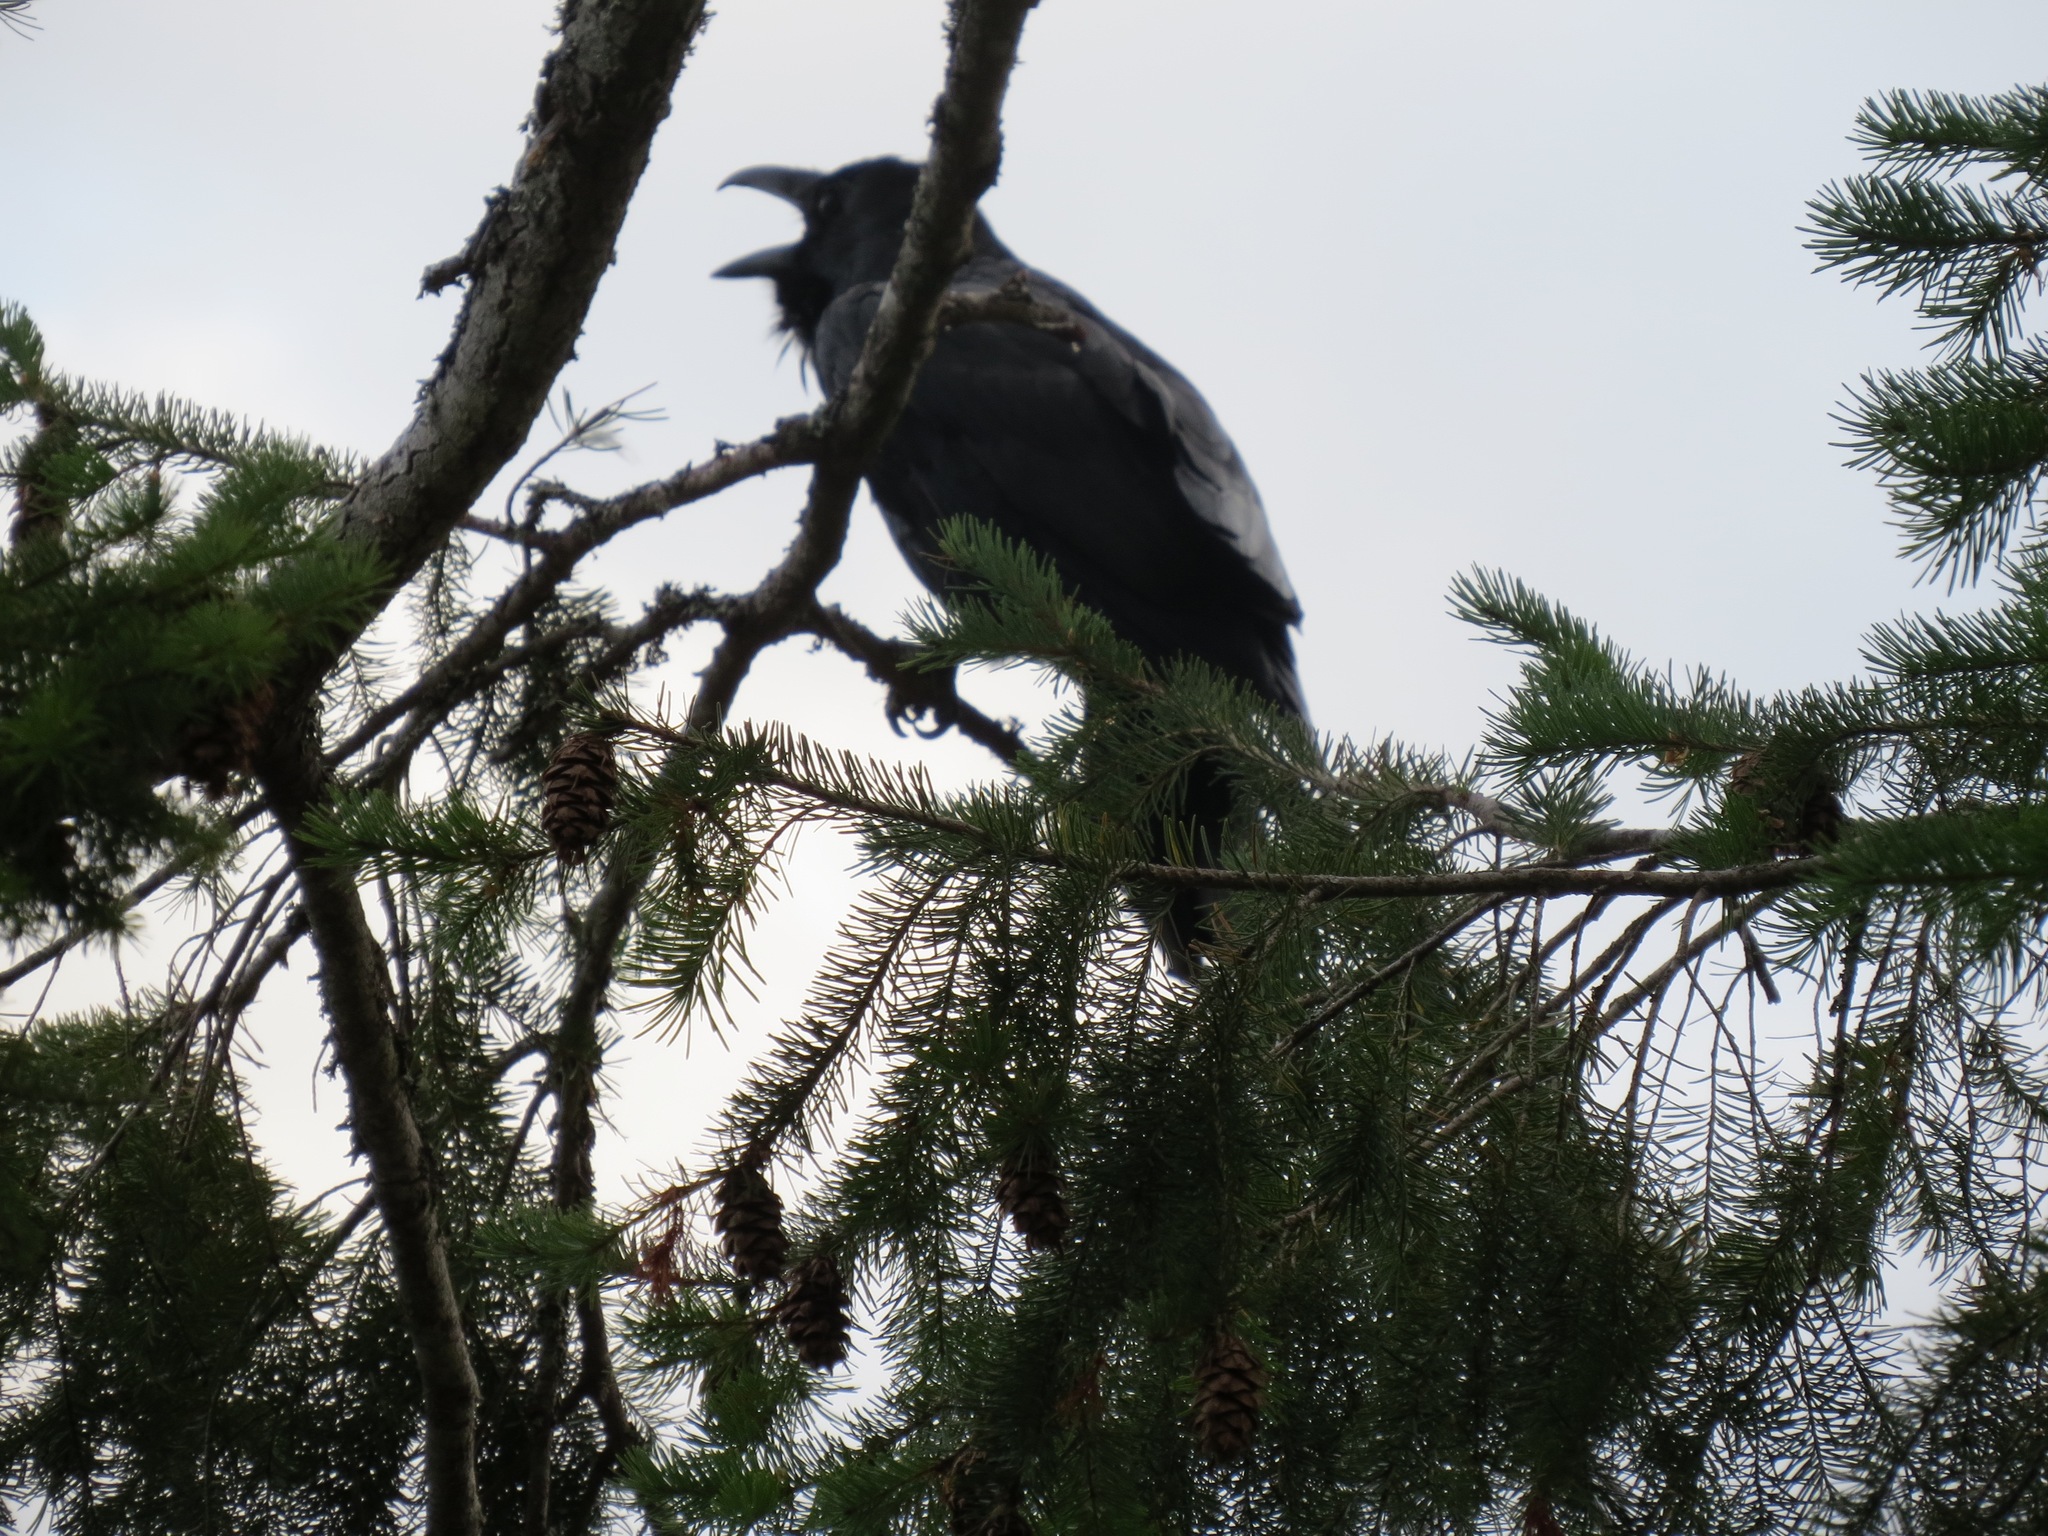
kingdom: Animalia
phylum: Chordata
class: Aves
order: Passeriformes
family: Corvidae
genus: Corvus
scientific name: Corvus corax
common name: Common raven
